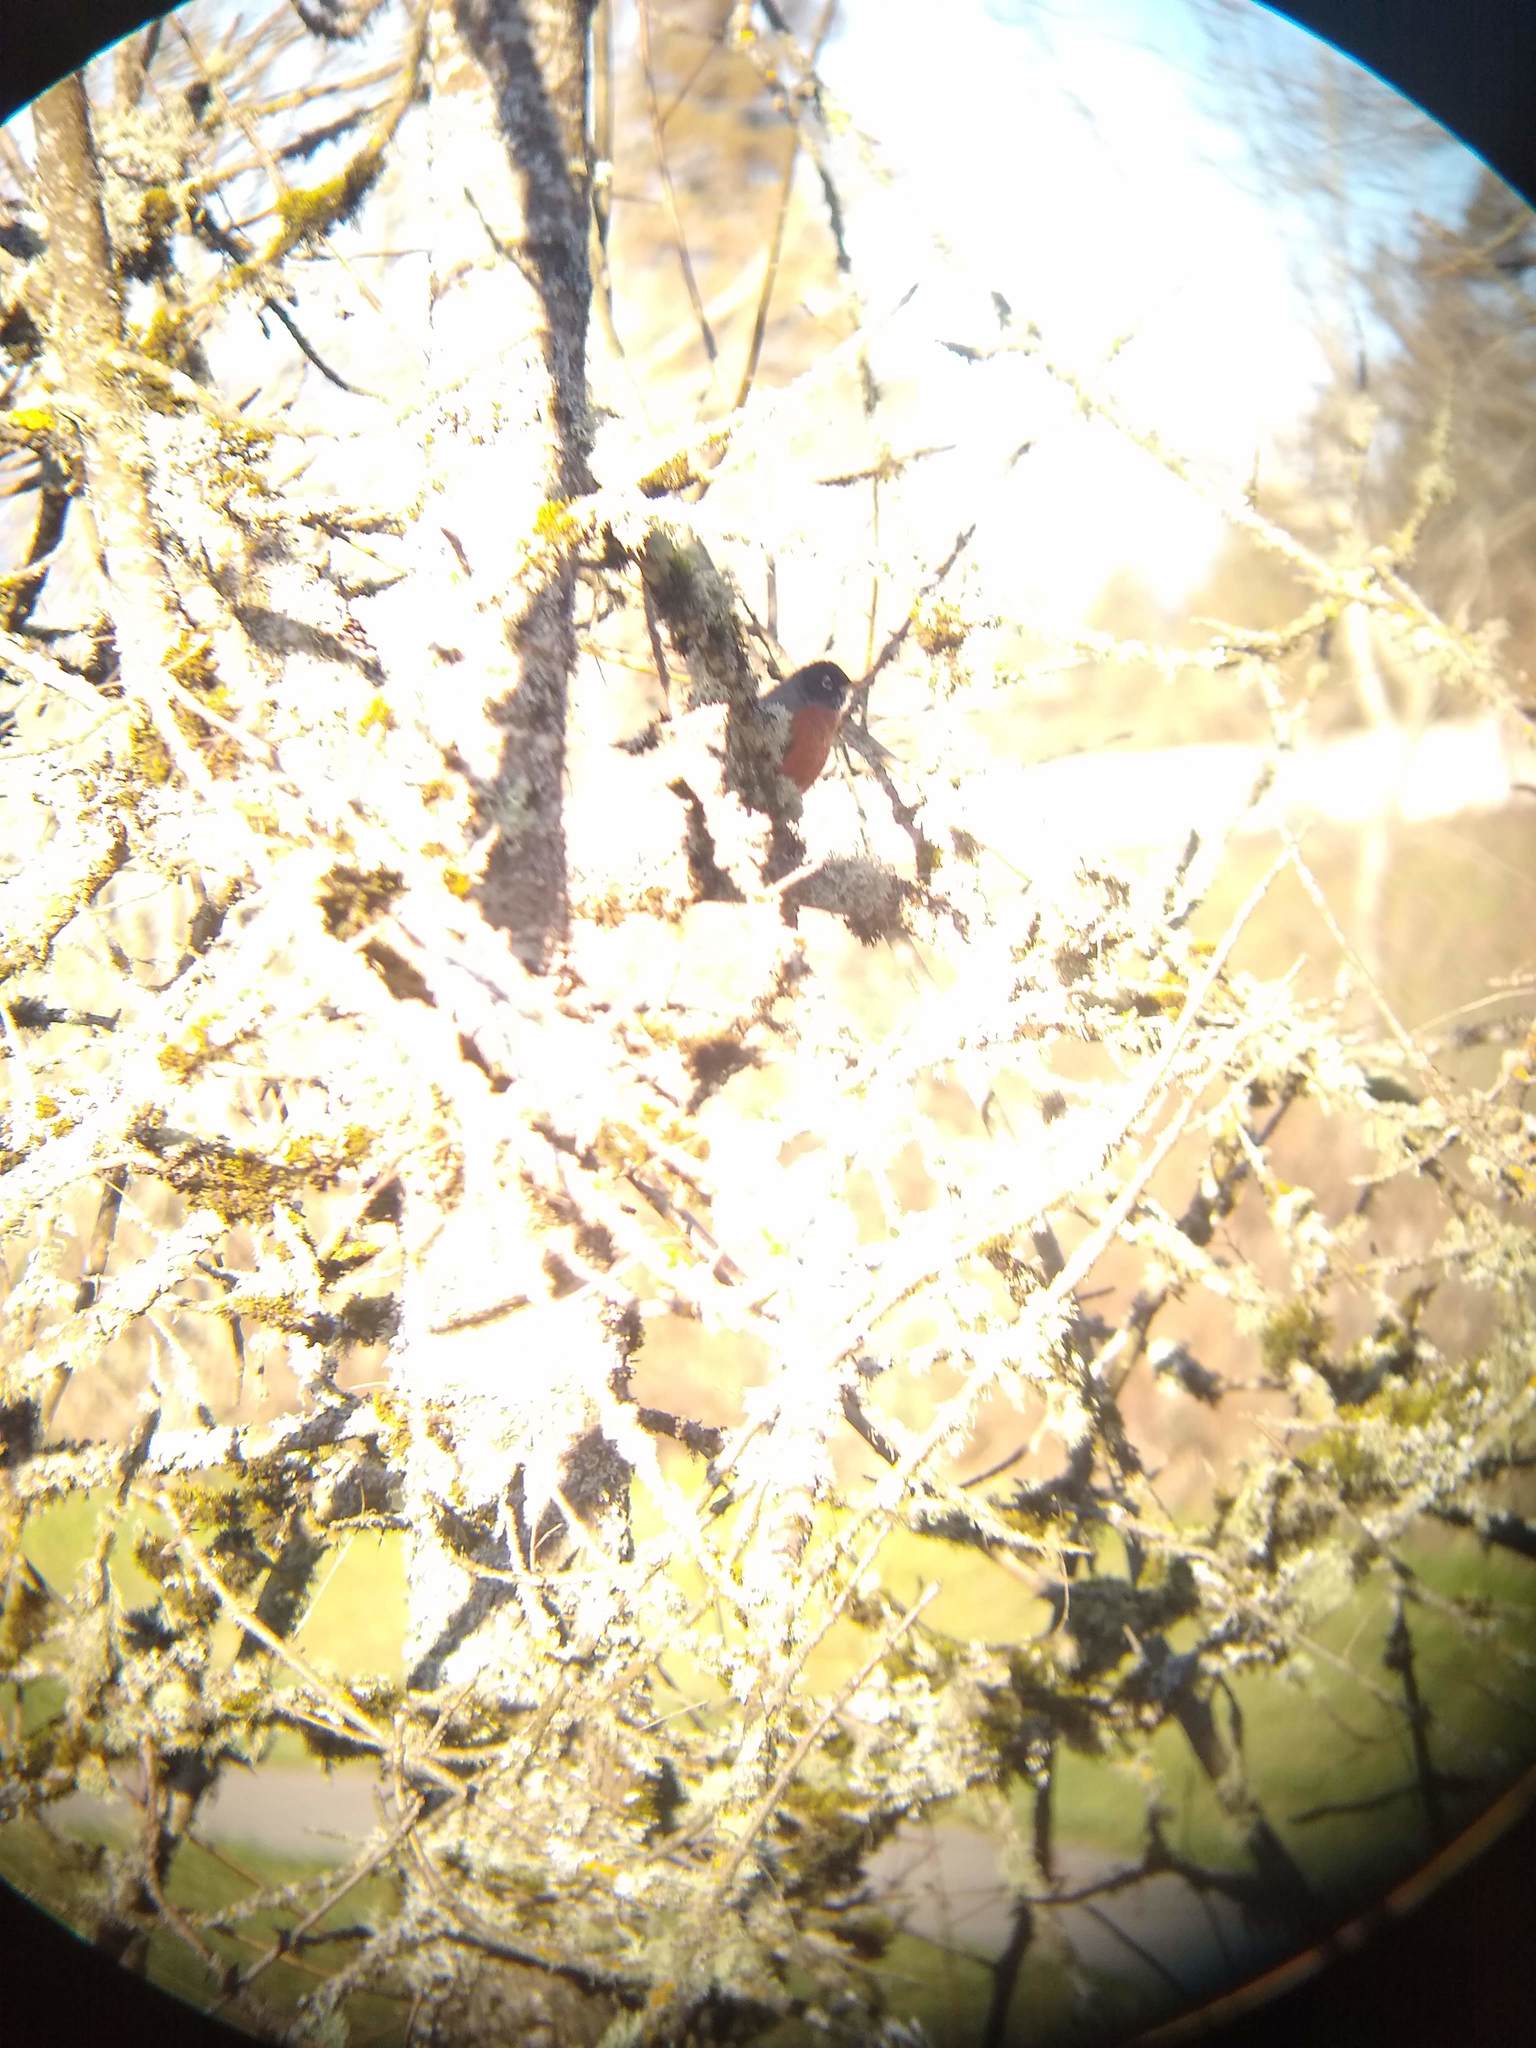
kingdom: Animalia
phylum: Chordata
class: Aves
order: Passeriformes
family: Turdidae
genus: Turdus
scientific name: Turdus migratorius
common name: American robin
